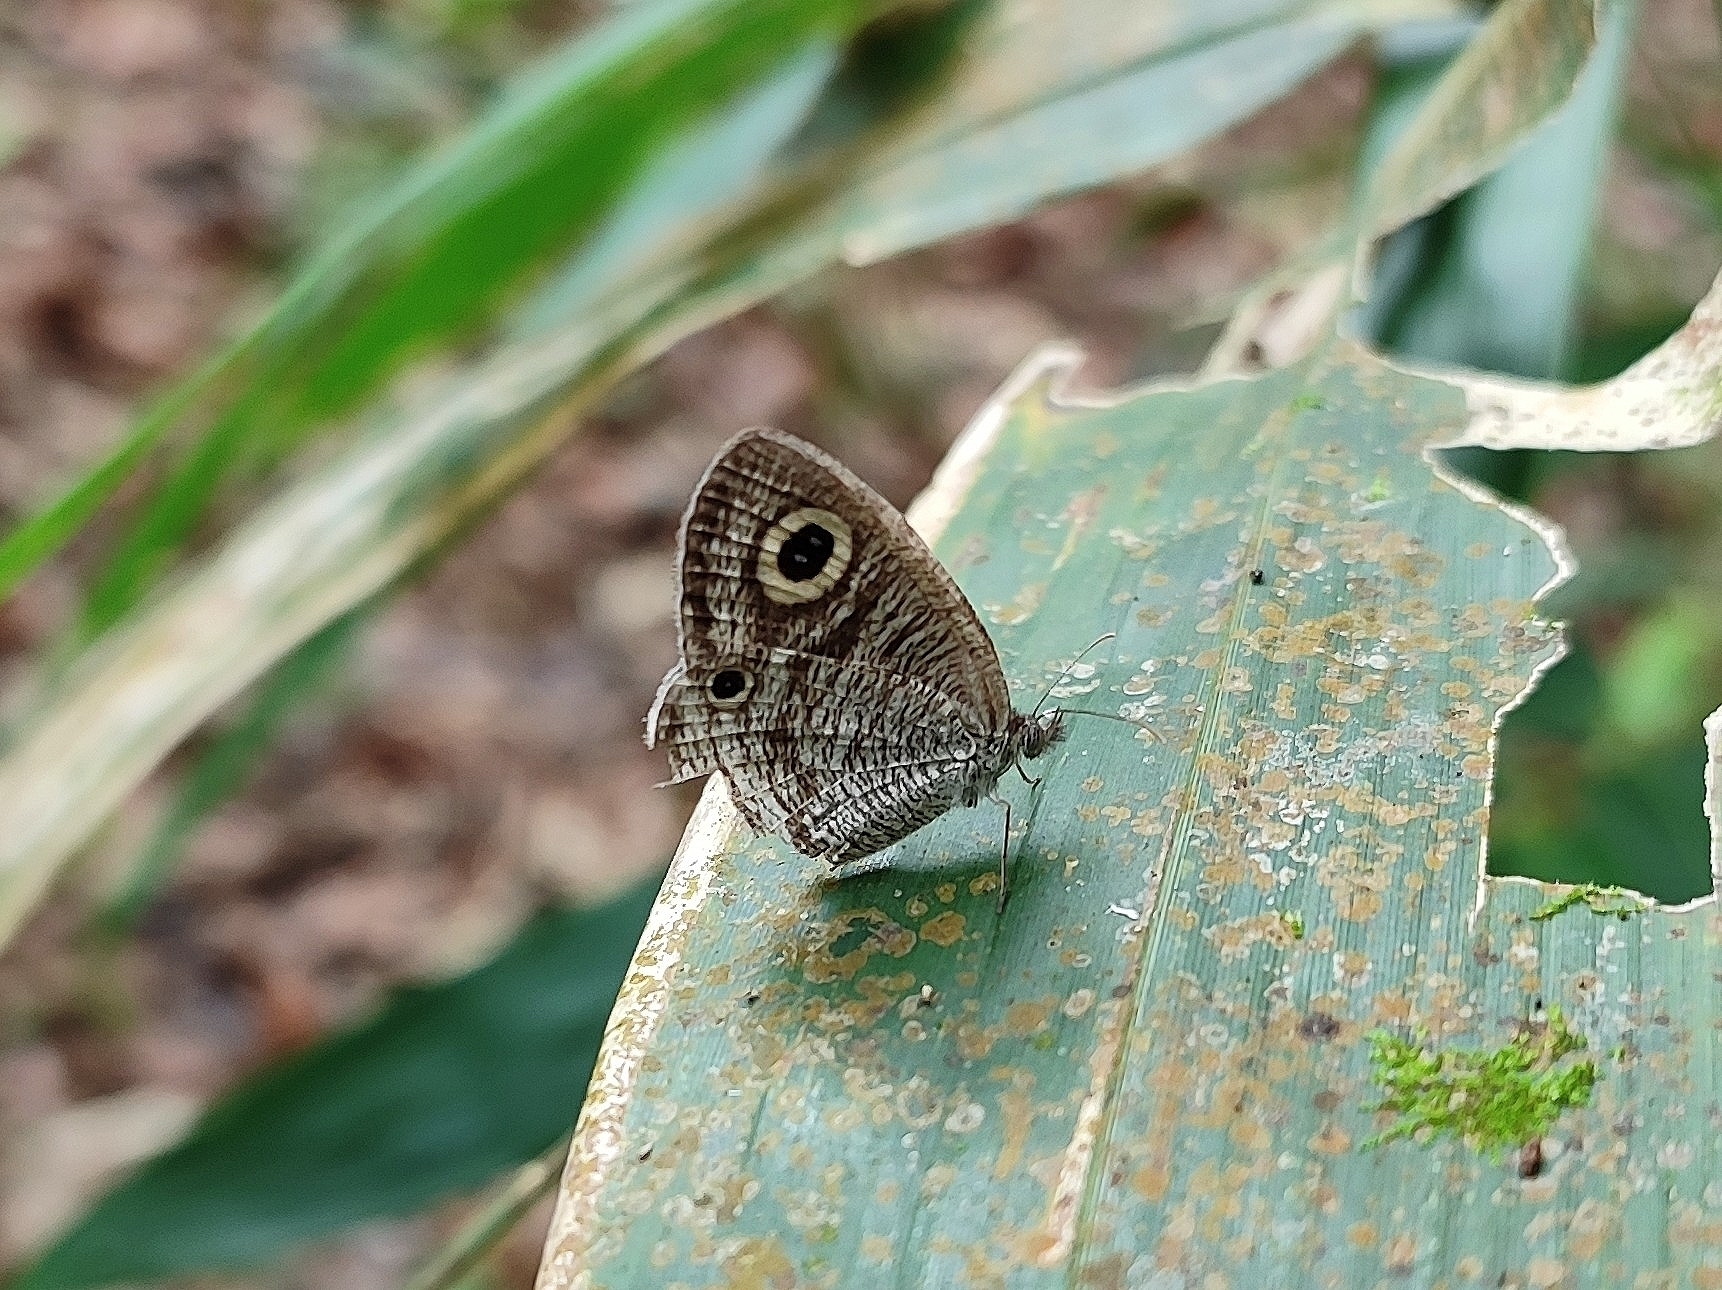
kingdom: Animalia
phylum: Arthropoda
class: Insecta
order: Lepidoptera
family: Nymphalidae
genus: Ypthima
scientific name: Ypthima huebneri
